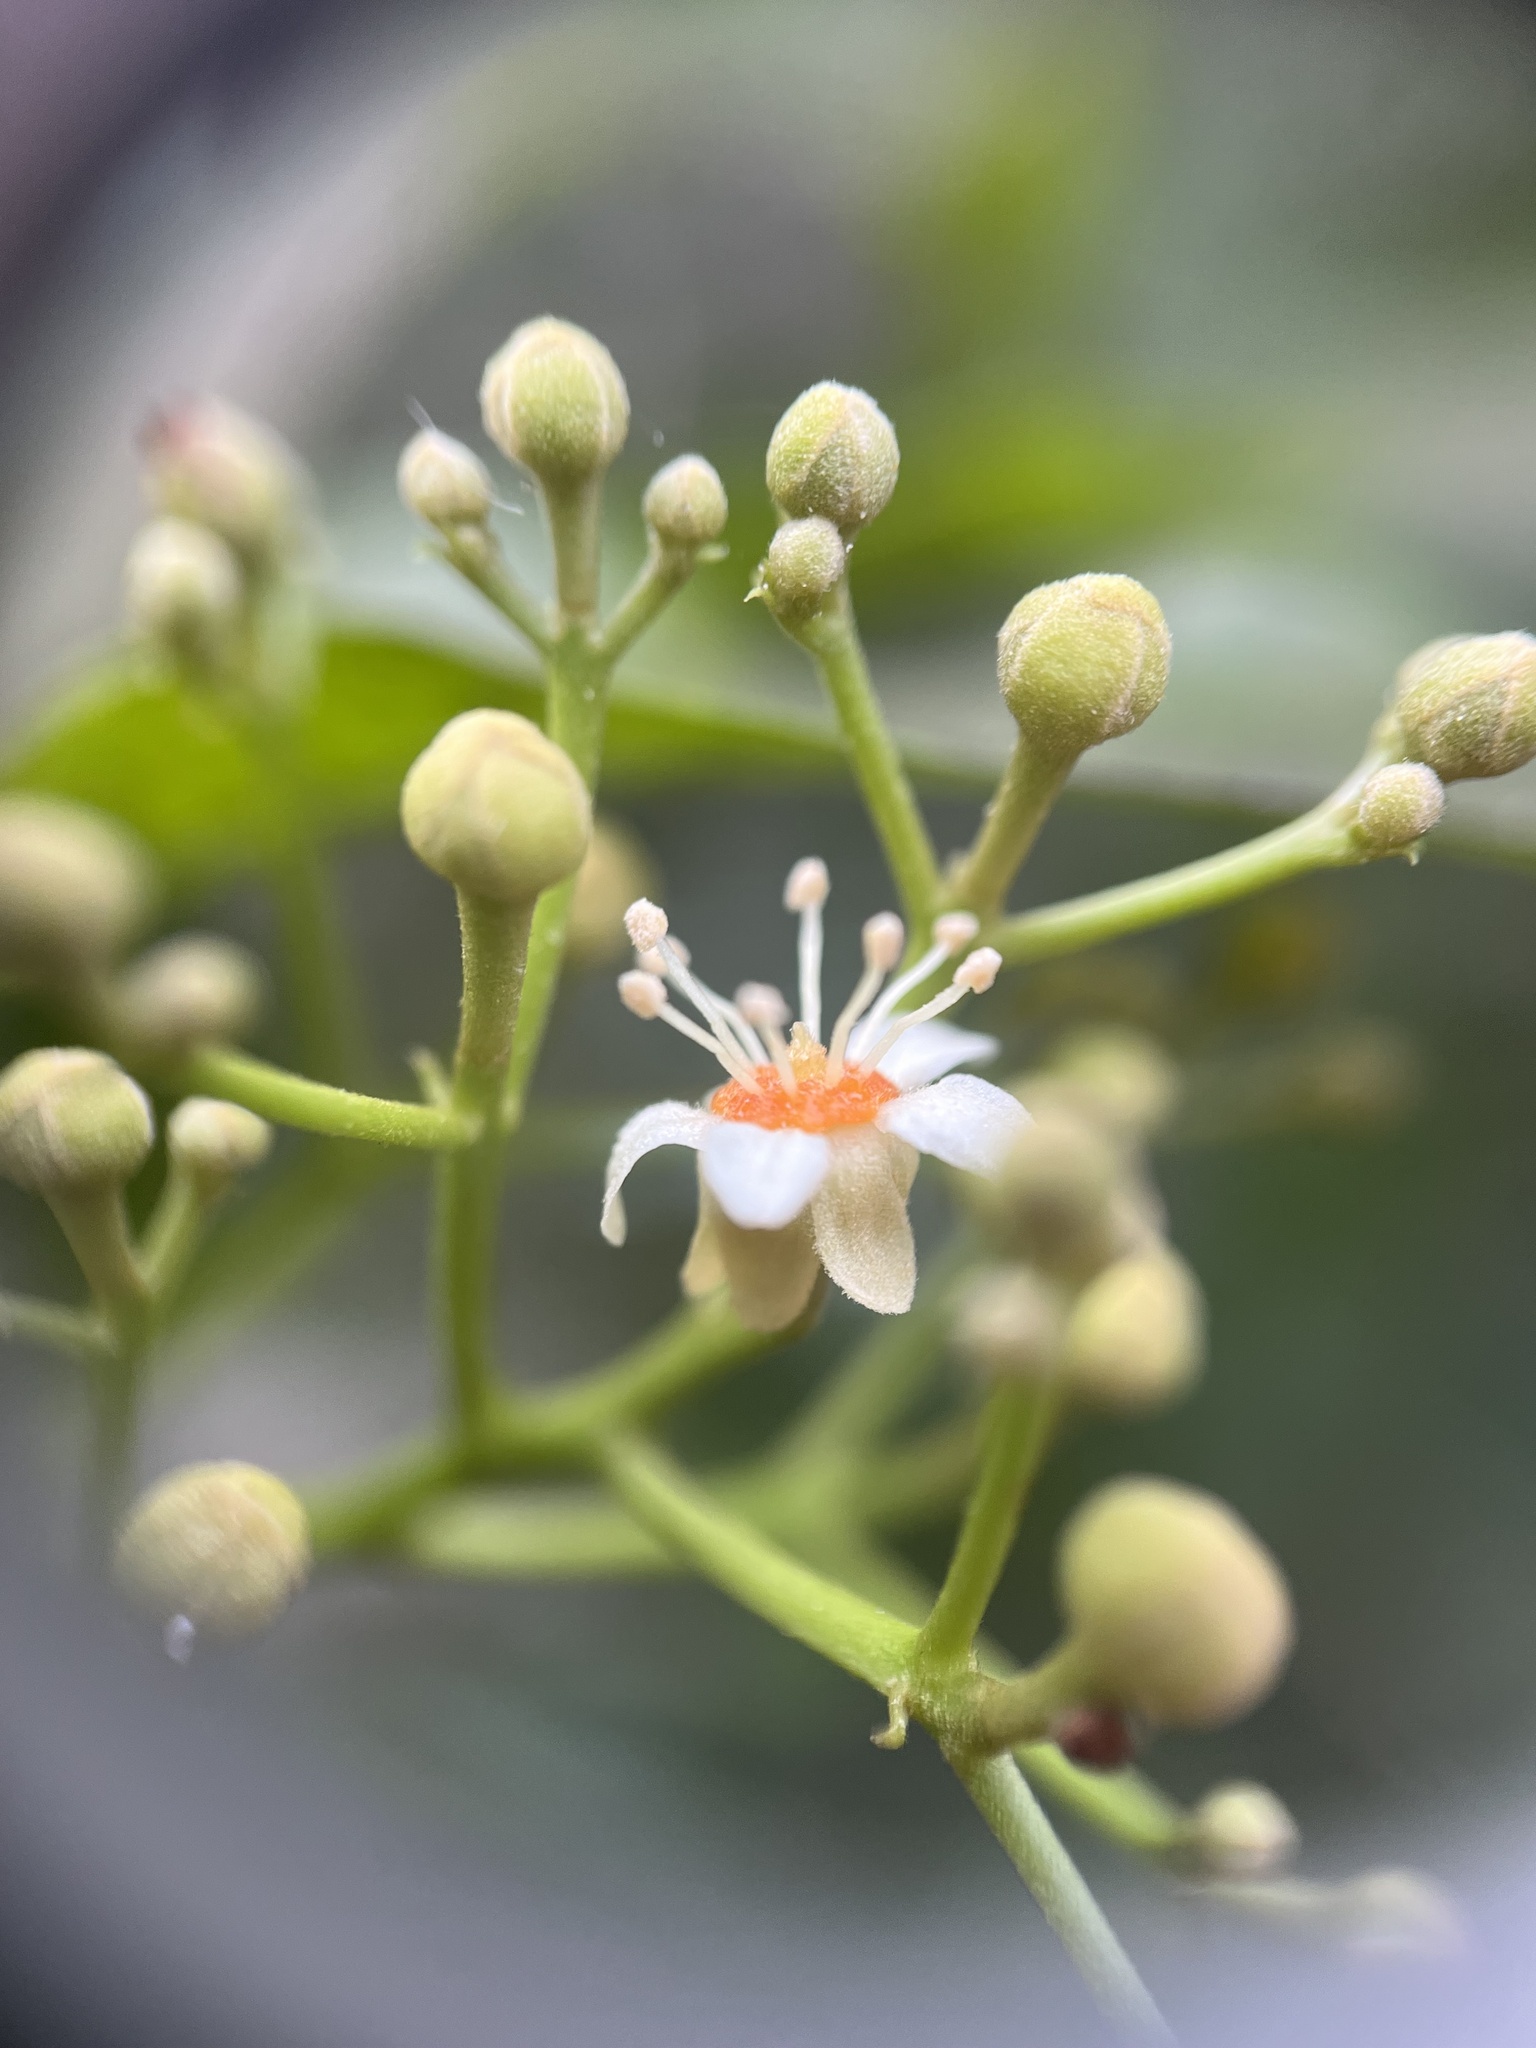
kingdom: Plantae
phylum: Tracheophyta
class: Magnoliopsida
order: Sapindales
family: Sapindaceae
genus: Exothea
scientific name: Exothea paniculata
